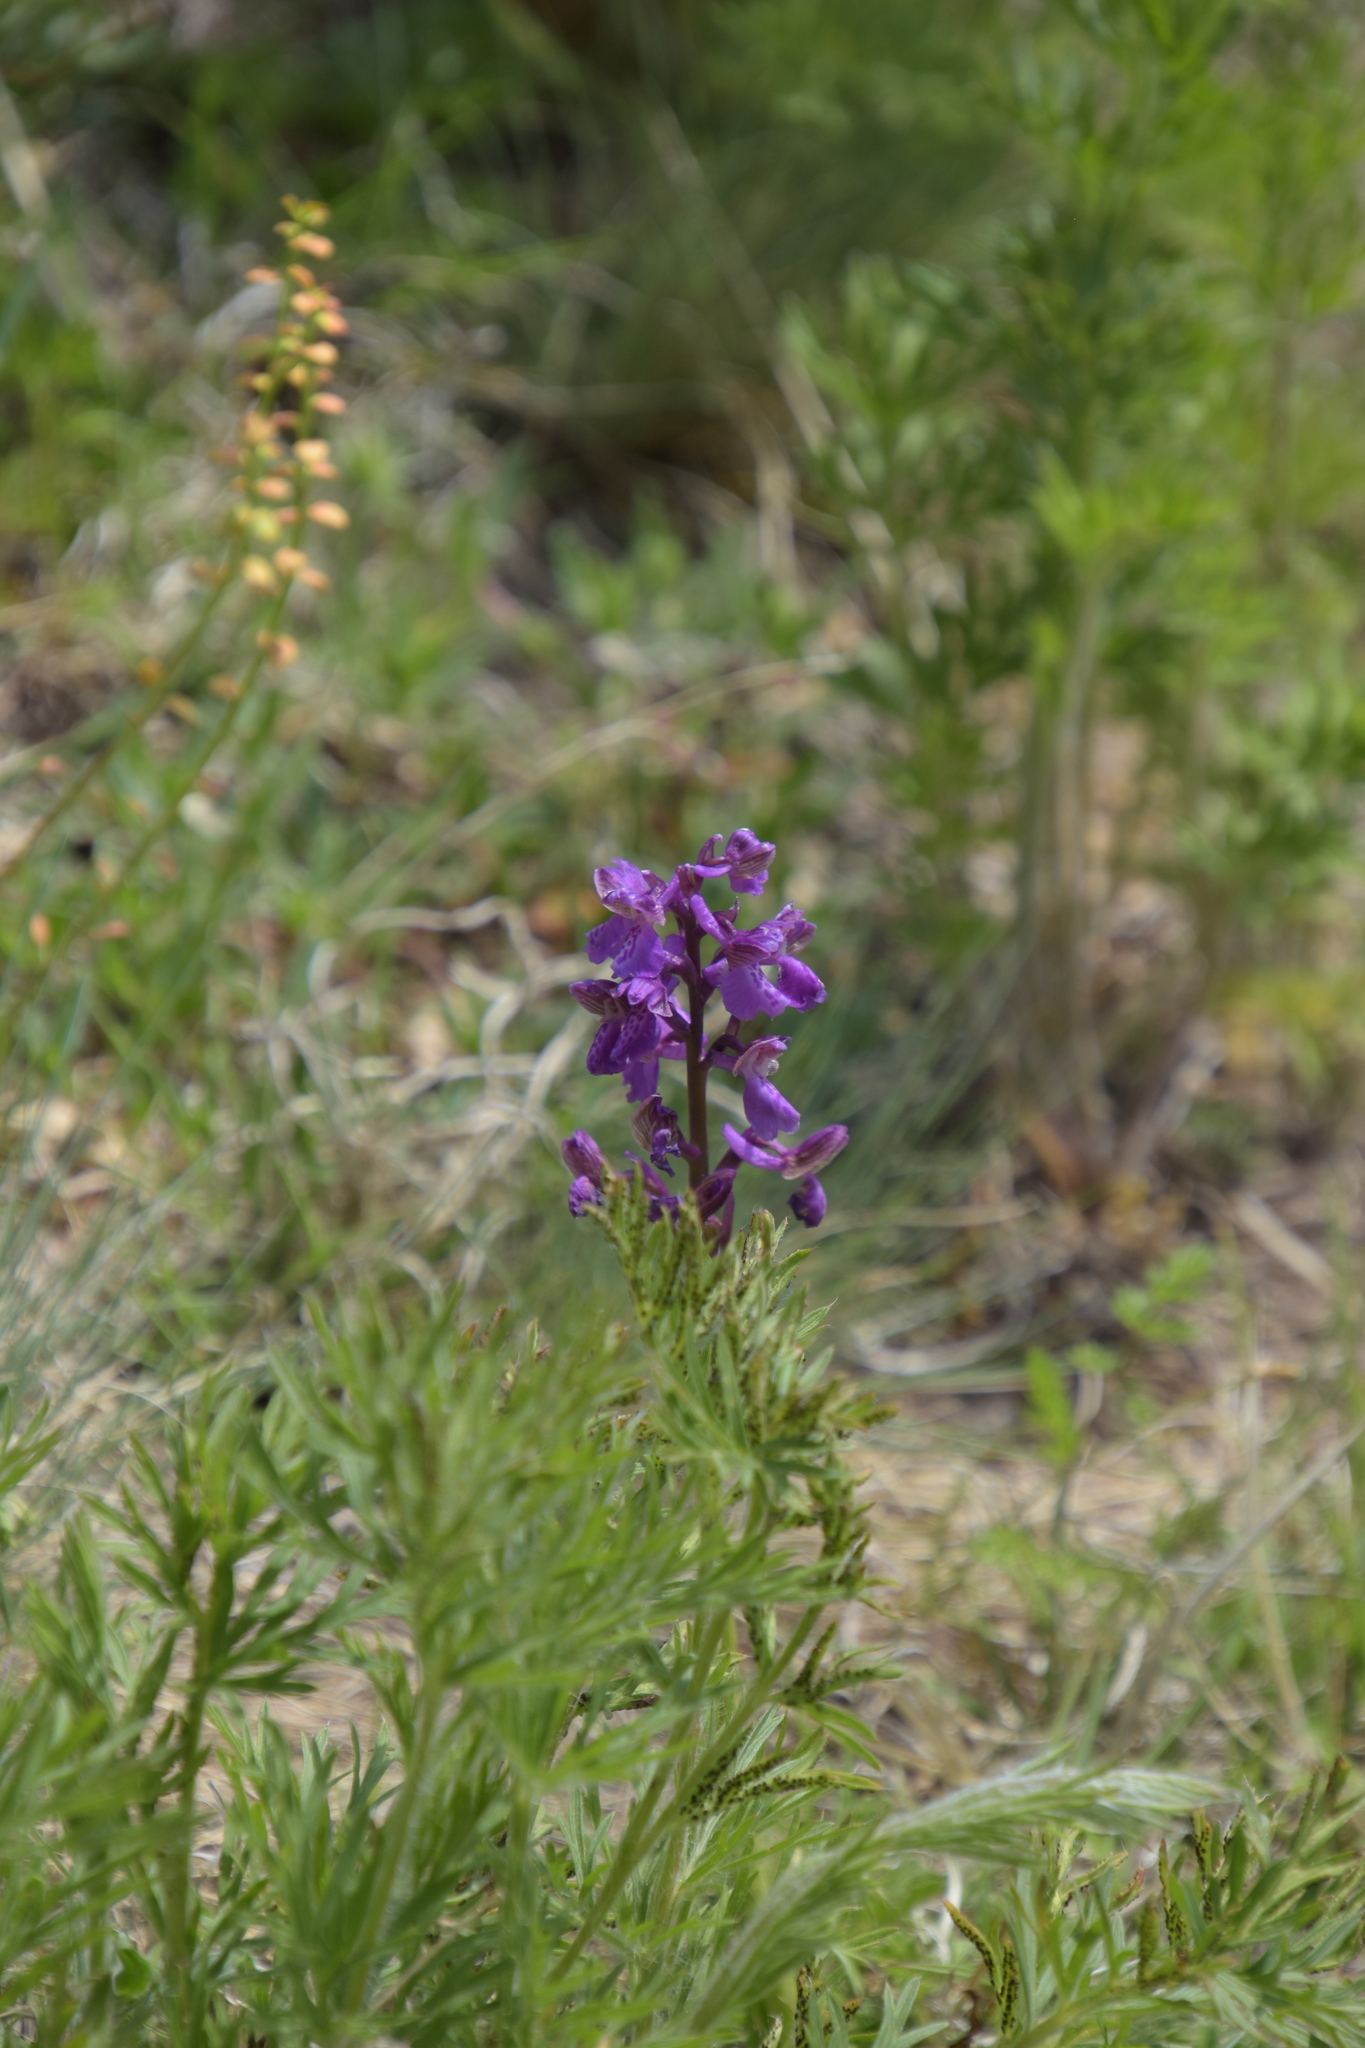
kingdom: Plantae
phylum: Tracheophyta
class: Liliopsida
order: Asparagales
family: Orchidaceae
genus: Anacamptis
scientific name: Anacamptis morio
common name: Green-winged orchid
